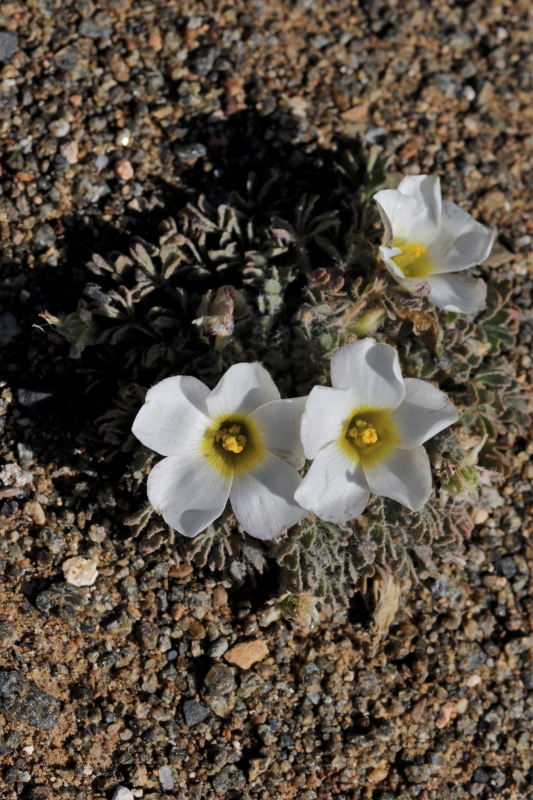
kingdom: Plantae
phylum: Tracheophyta
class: Magnoliopsida
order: Oxalidales
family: Oxalidaceae
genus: Oxalis
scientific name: Oxalis annae
